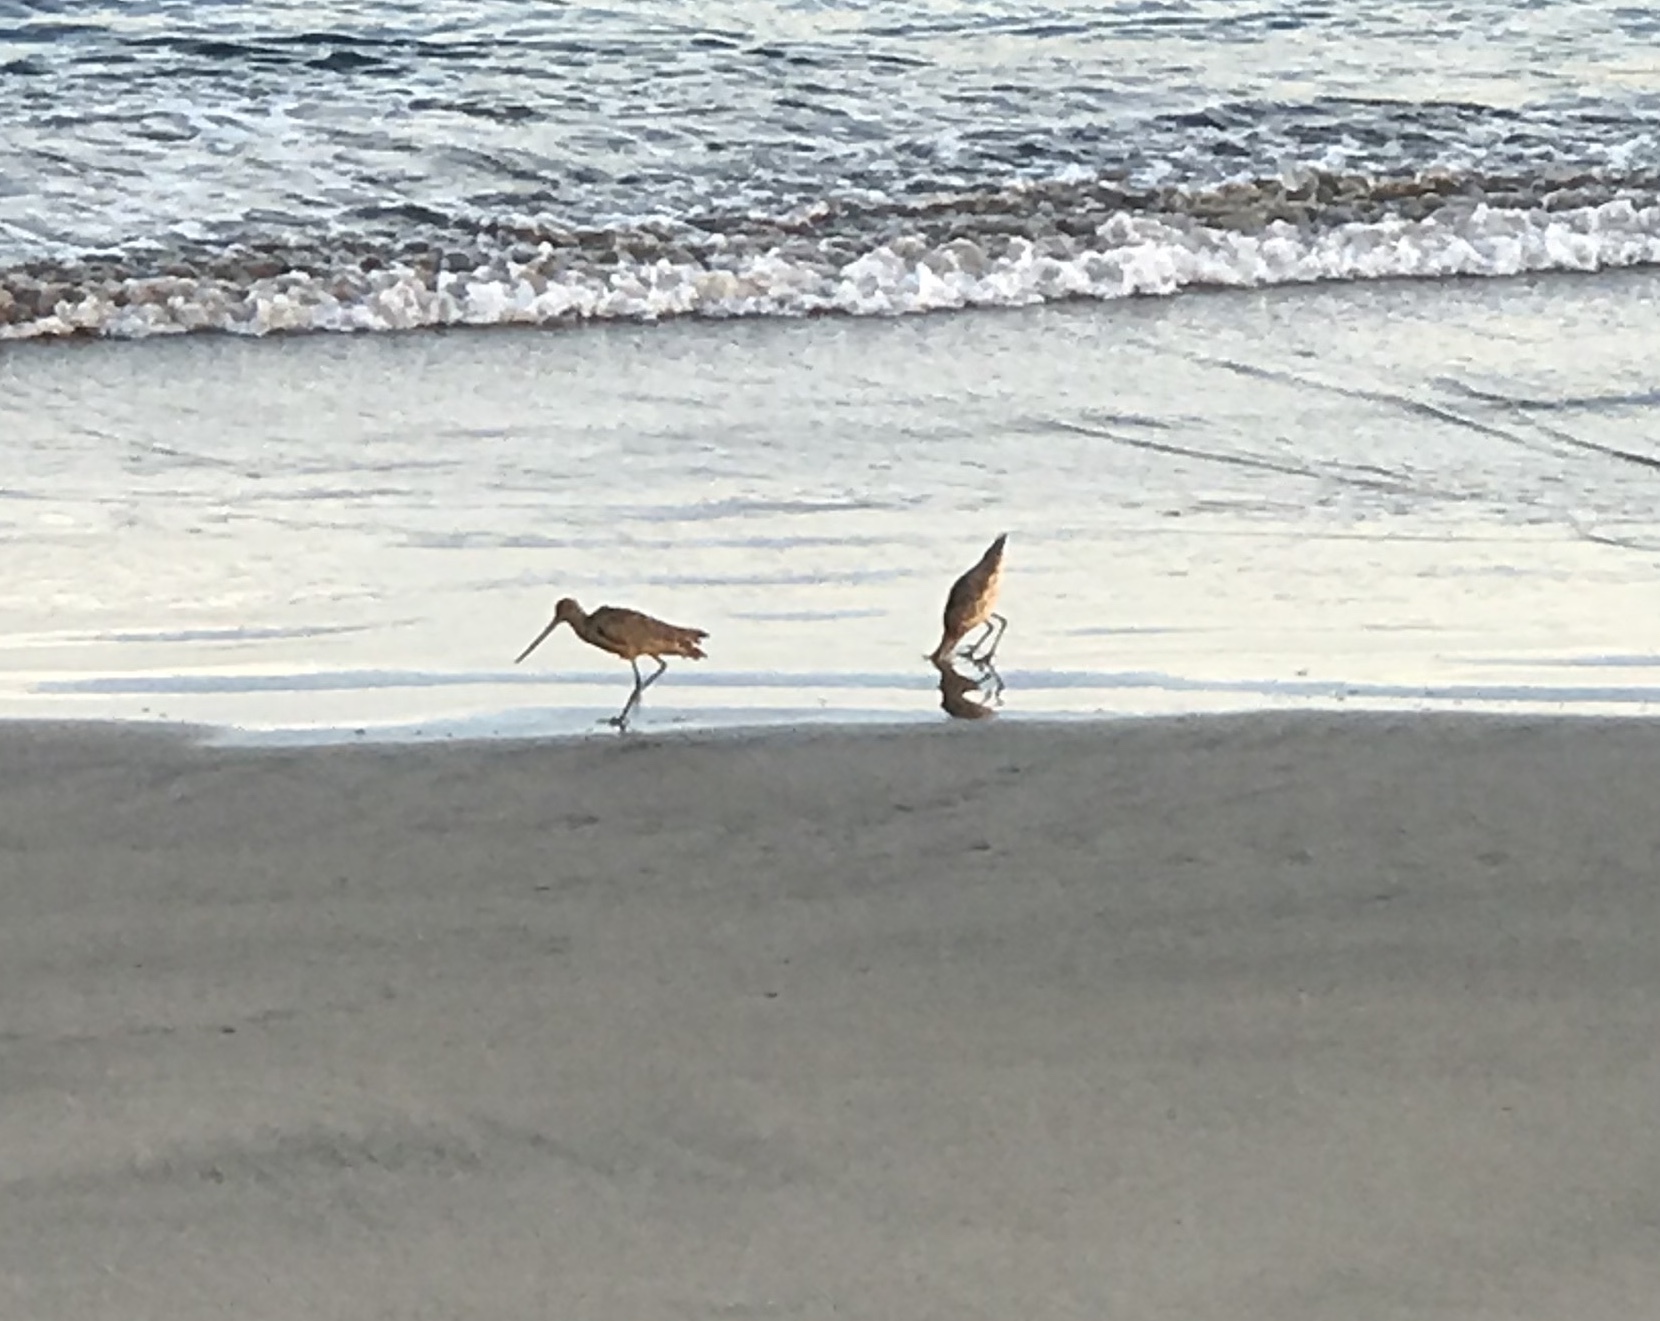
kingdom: Animalia
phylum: Chordata
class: Aves
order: Charadriiformes
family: Scolopacidae
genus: Limosa
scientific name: Limosa fedoa
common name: Marbled godwit
